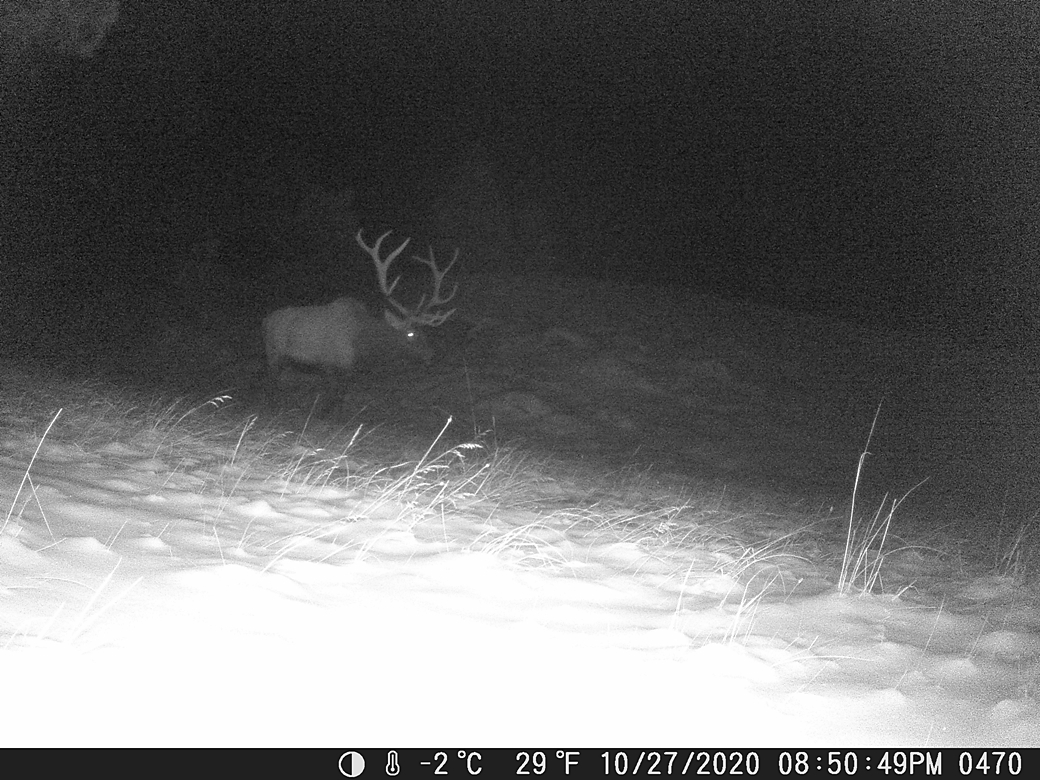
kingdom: Animalia
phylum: Chordata
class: Mammalia
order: Artiodactyla
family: Cervidae
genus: Cervus
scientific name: Cervus elaphus
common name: Red deer
